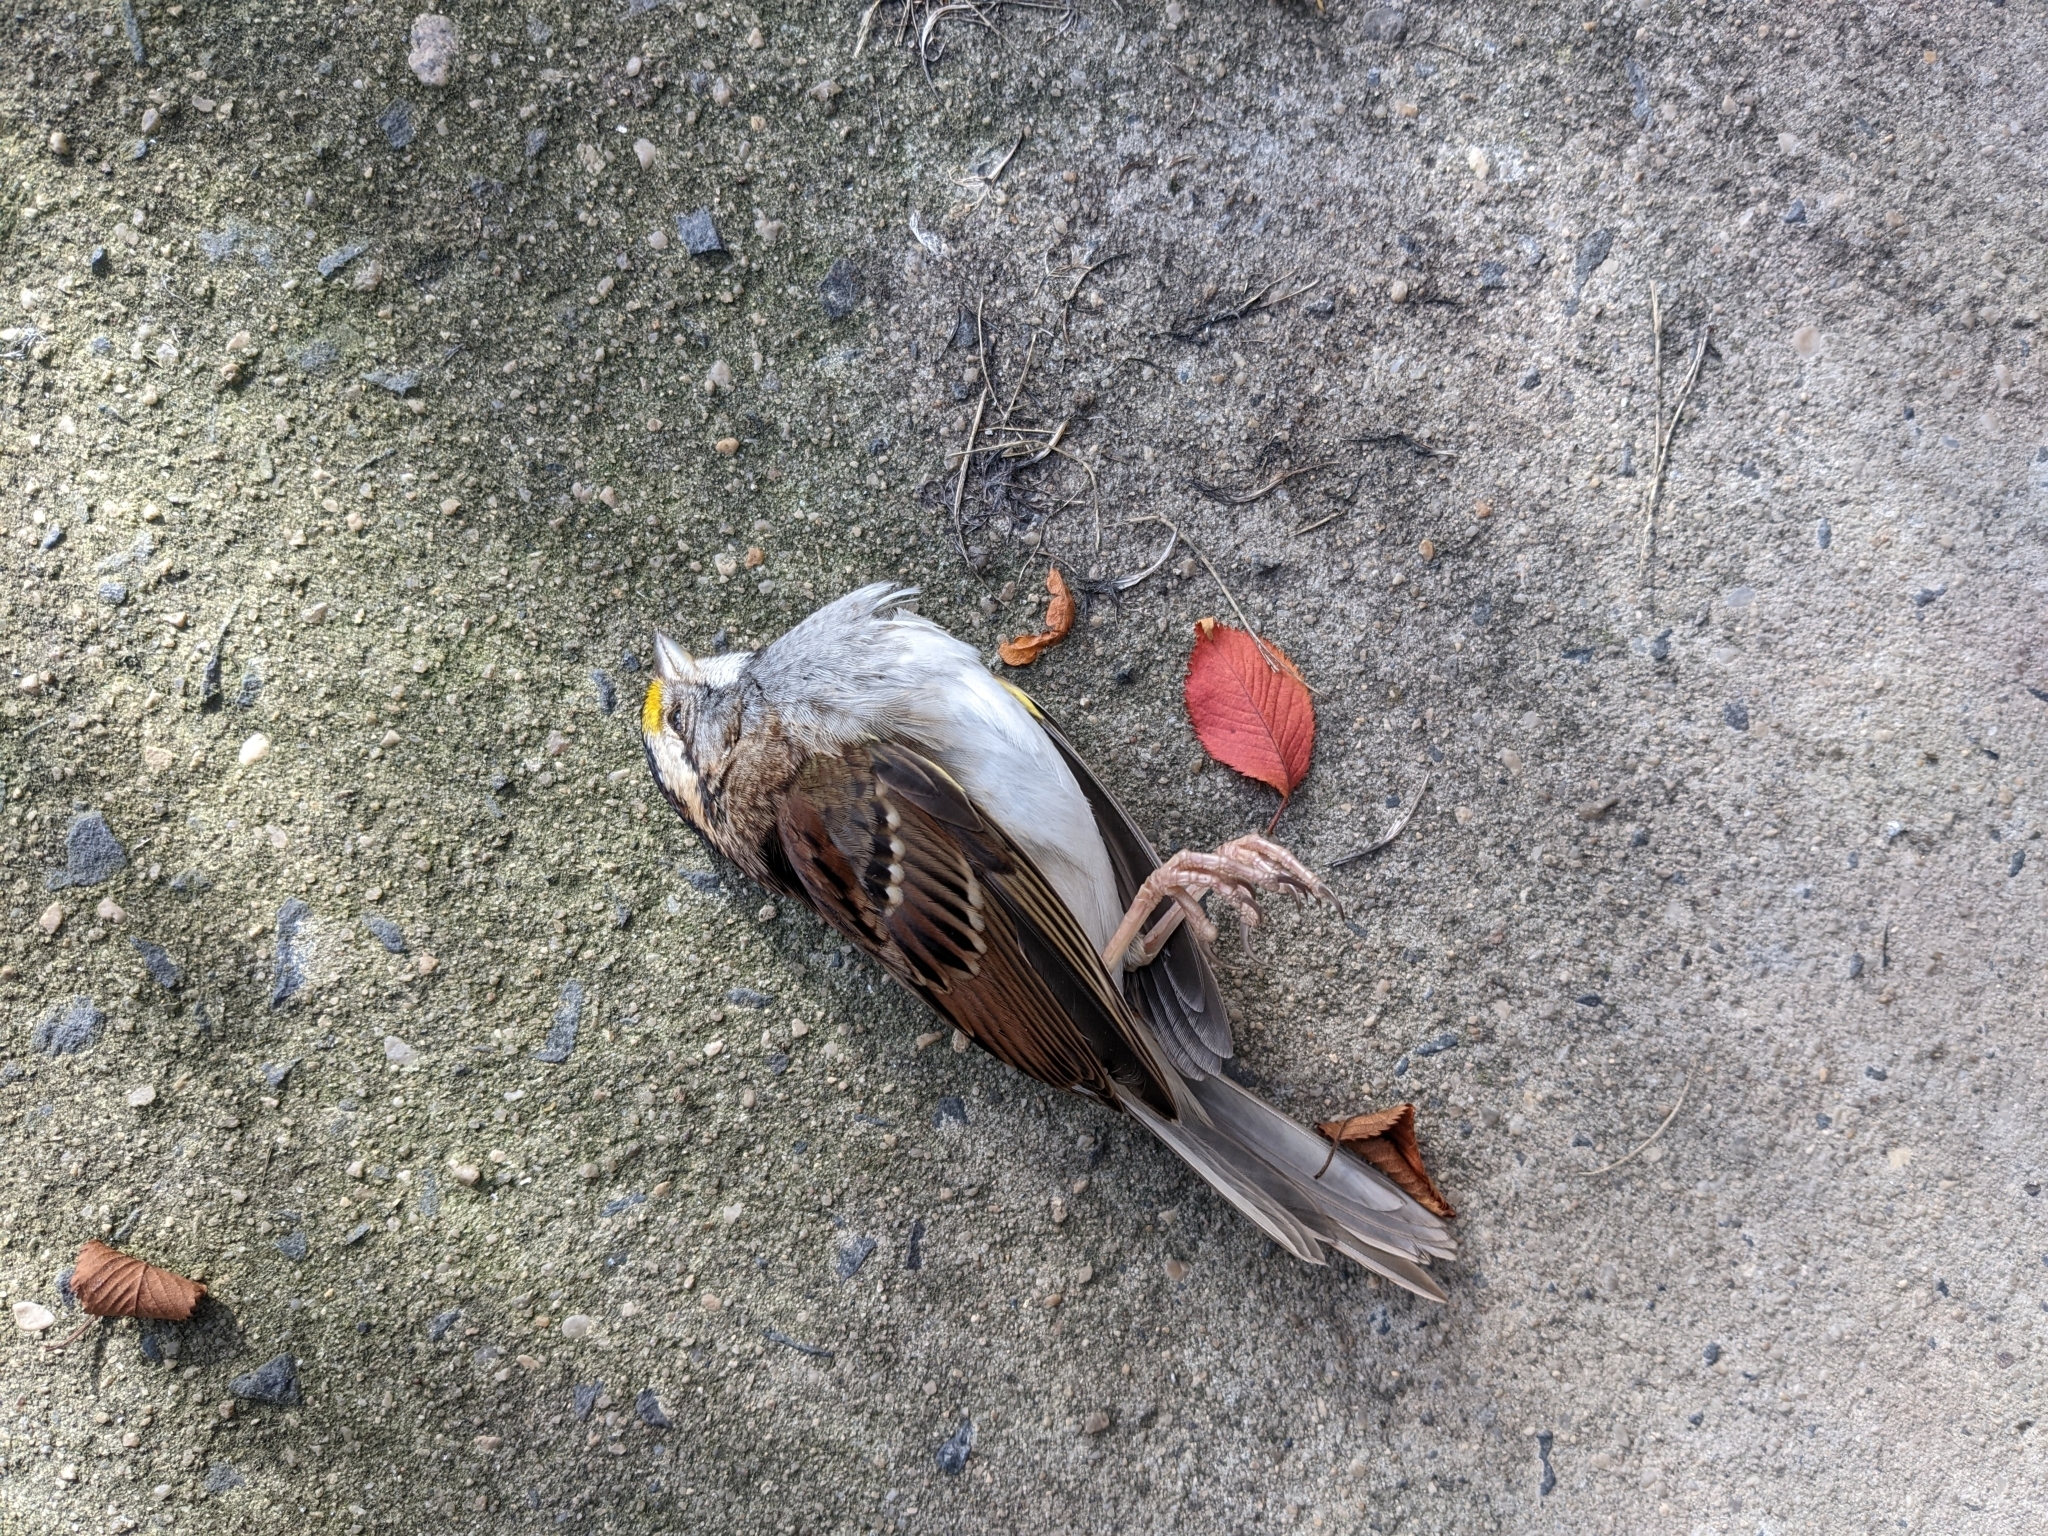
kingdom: Animalia
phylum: Chordata
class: Aves
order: Passeriformes
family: Passerellidae
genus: Zonotrichia
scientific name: Zonotrichia albicollis
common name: White-throated sparrow
